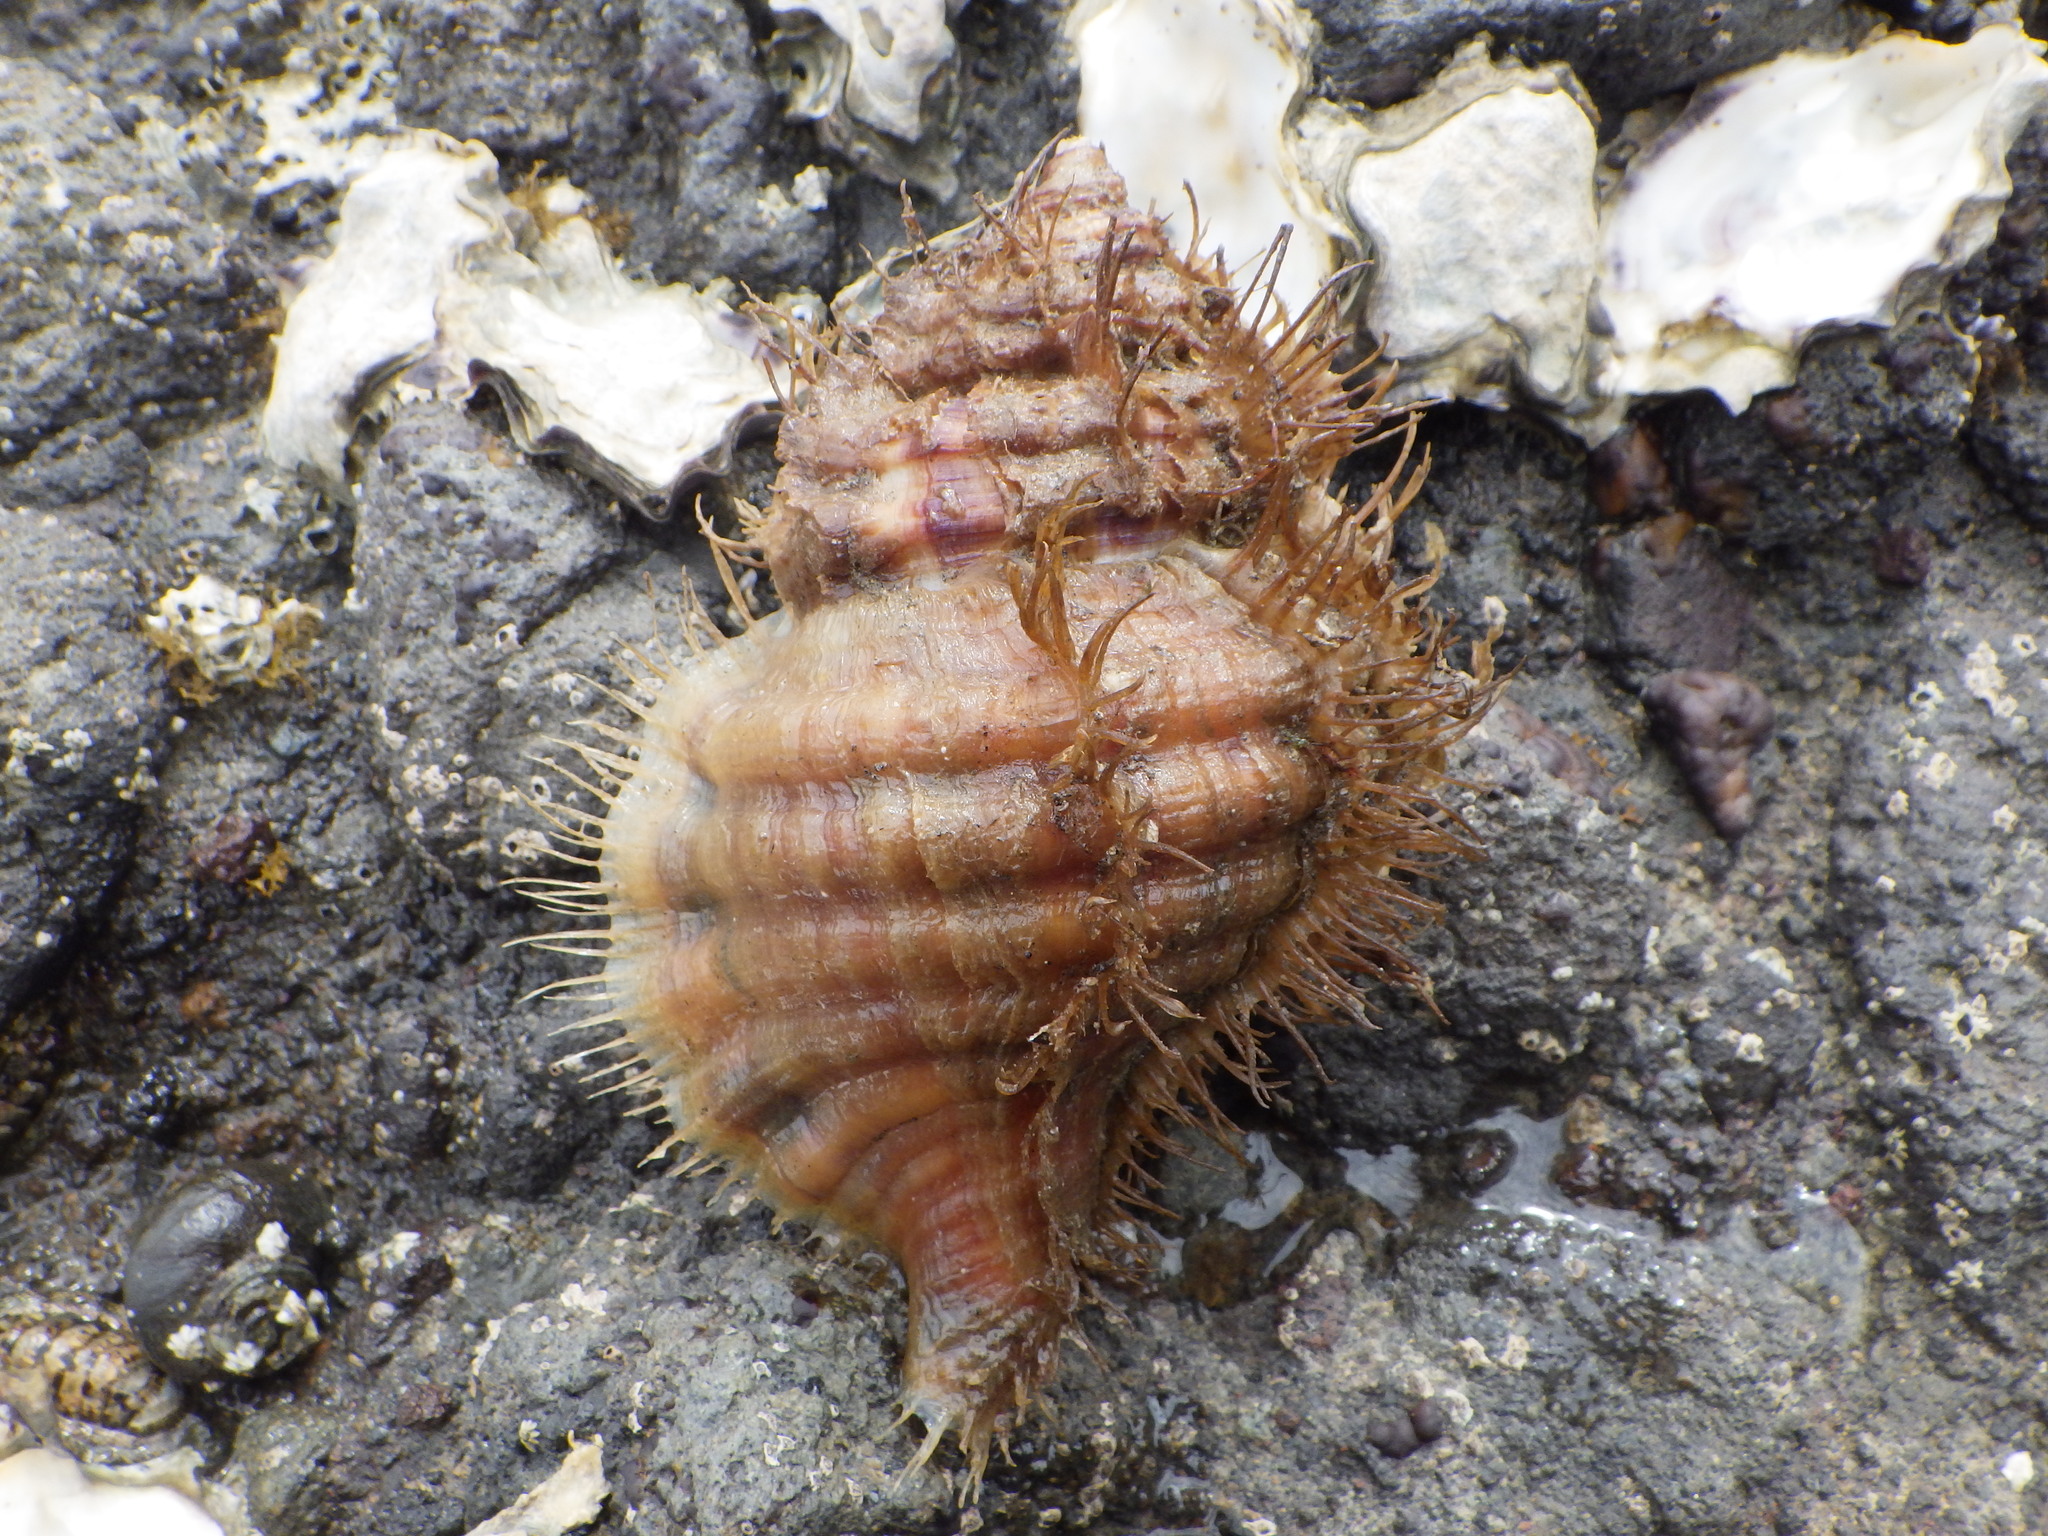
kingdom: Animalia
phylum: Mollusca
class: Gastropoda
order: Littorinimorpha
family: Cymatiidae
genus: Monoplex
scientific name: Monoplex parthenopeus
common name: Giant triton
